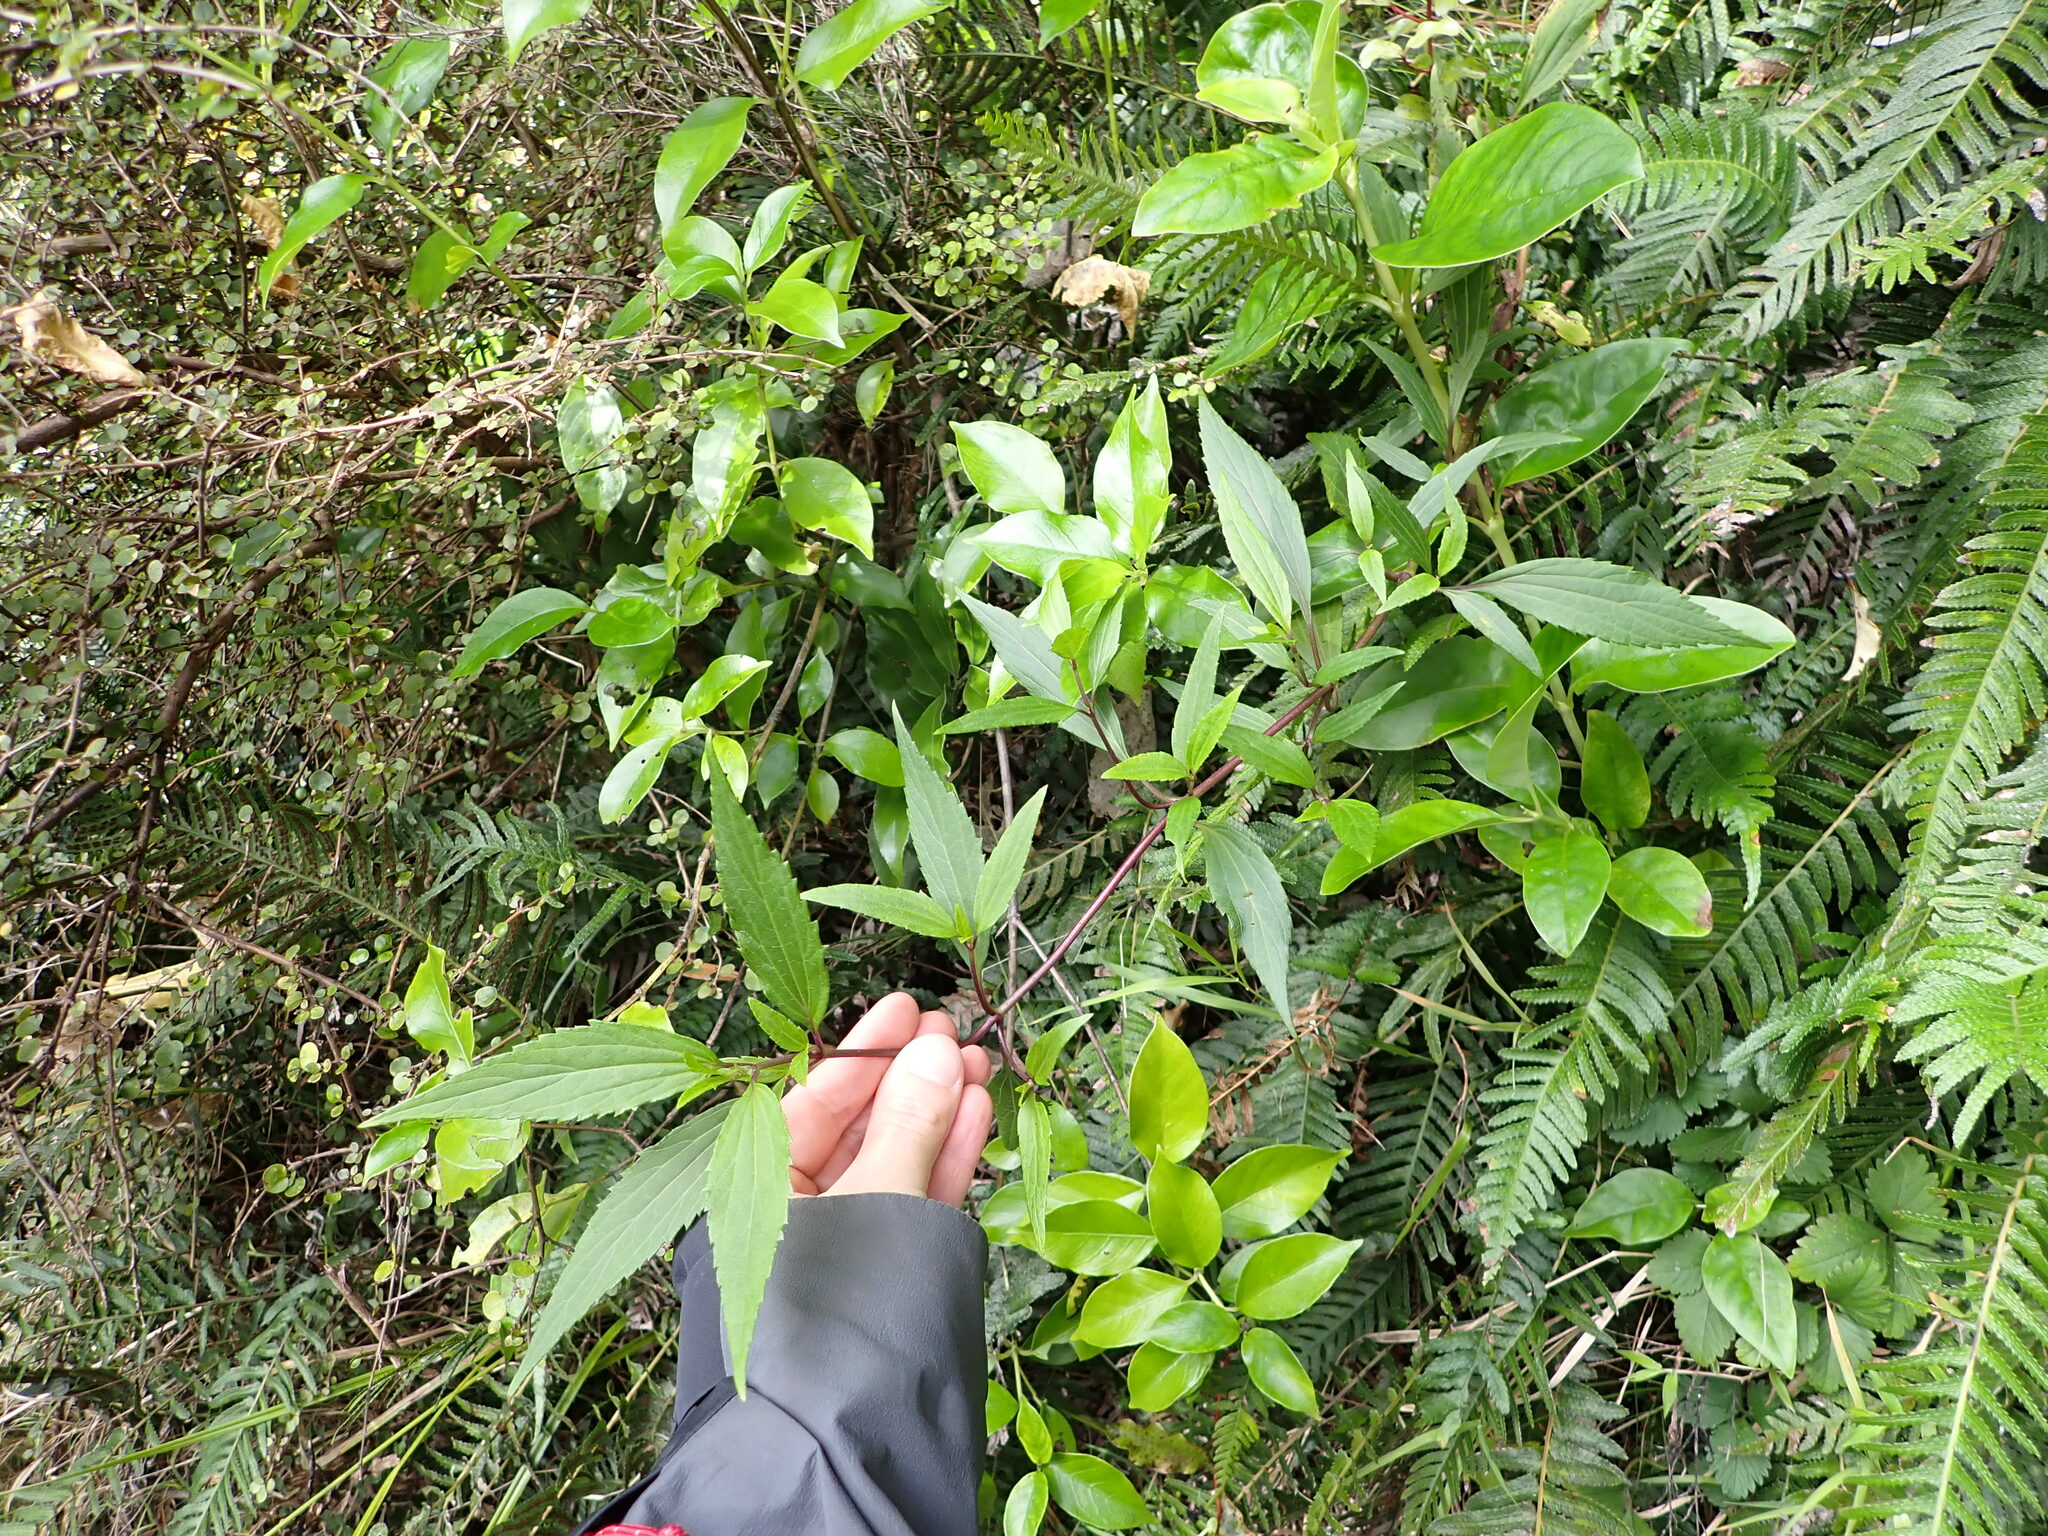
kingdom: Plantae
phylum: Tracheophyta
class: Magnoliopsida
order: Asterales
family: Asteraceae
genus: Ageratina
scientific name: Ageratina riparia
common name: Creeping croftonweed
